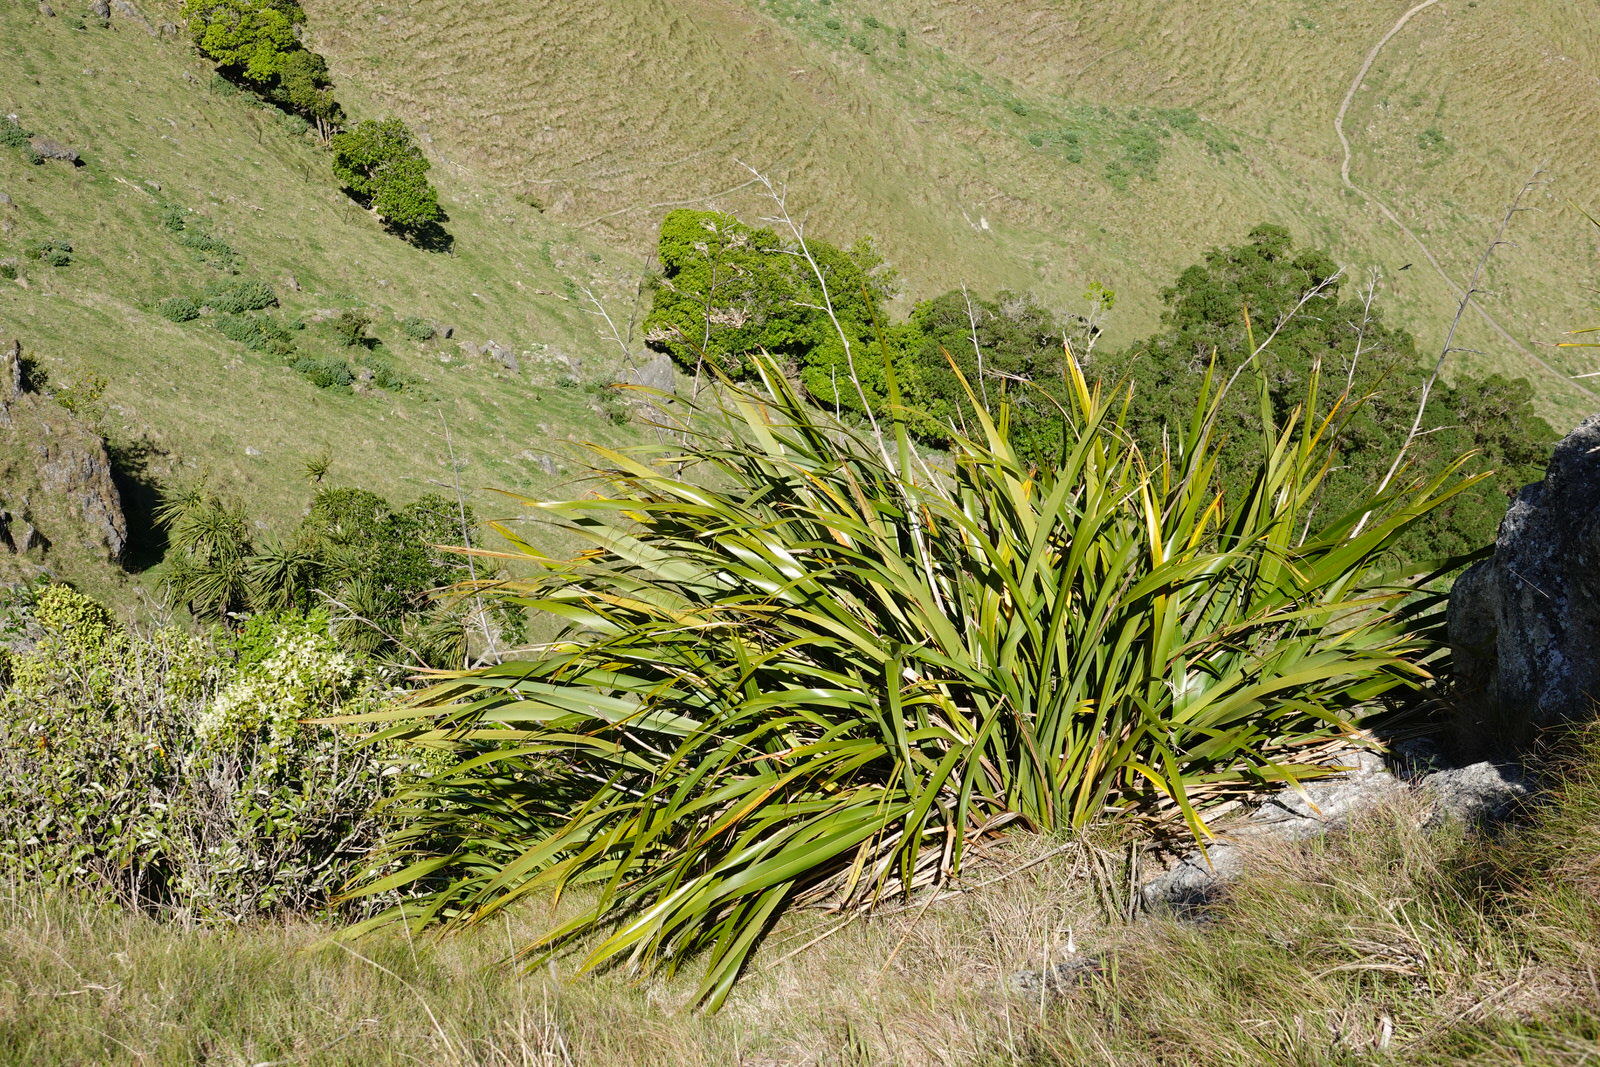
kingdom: Plantae
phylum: Tracheophyta
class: Liliopsida
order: Asparagales
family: Asphodelaceae
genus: Phormium
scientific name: Phormium colensoi
